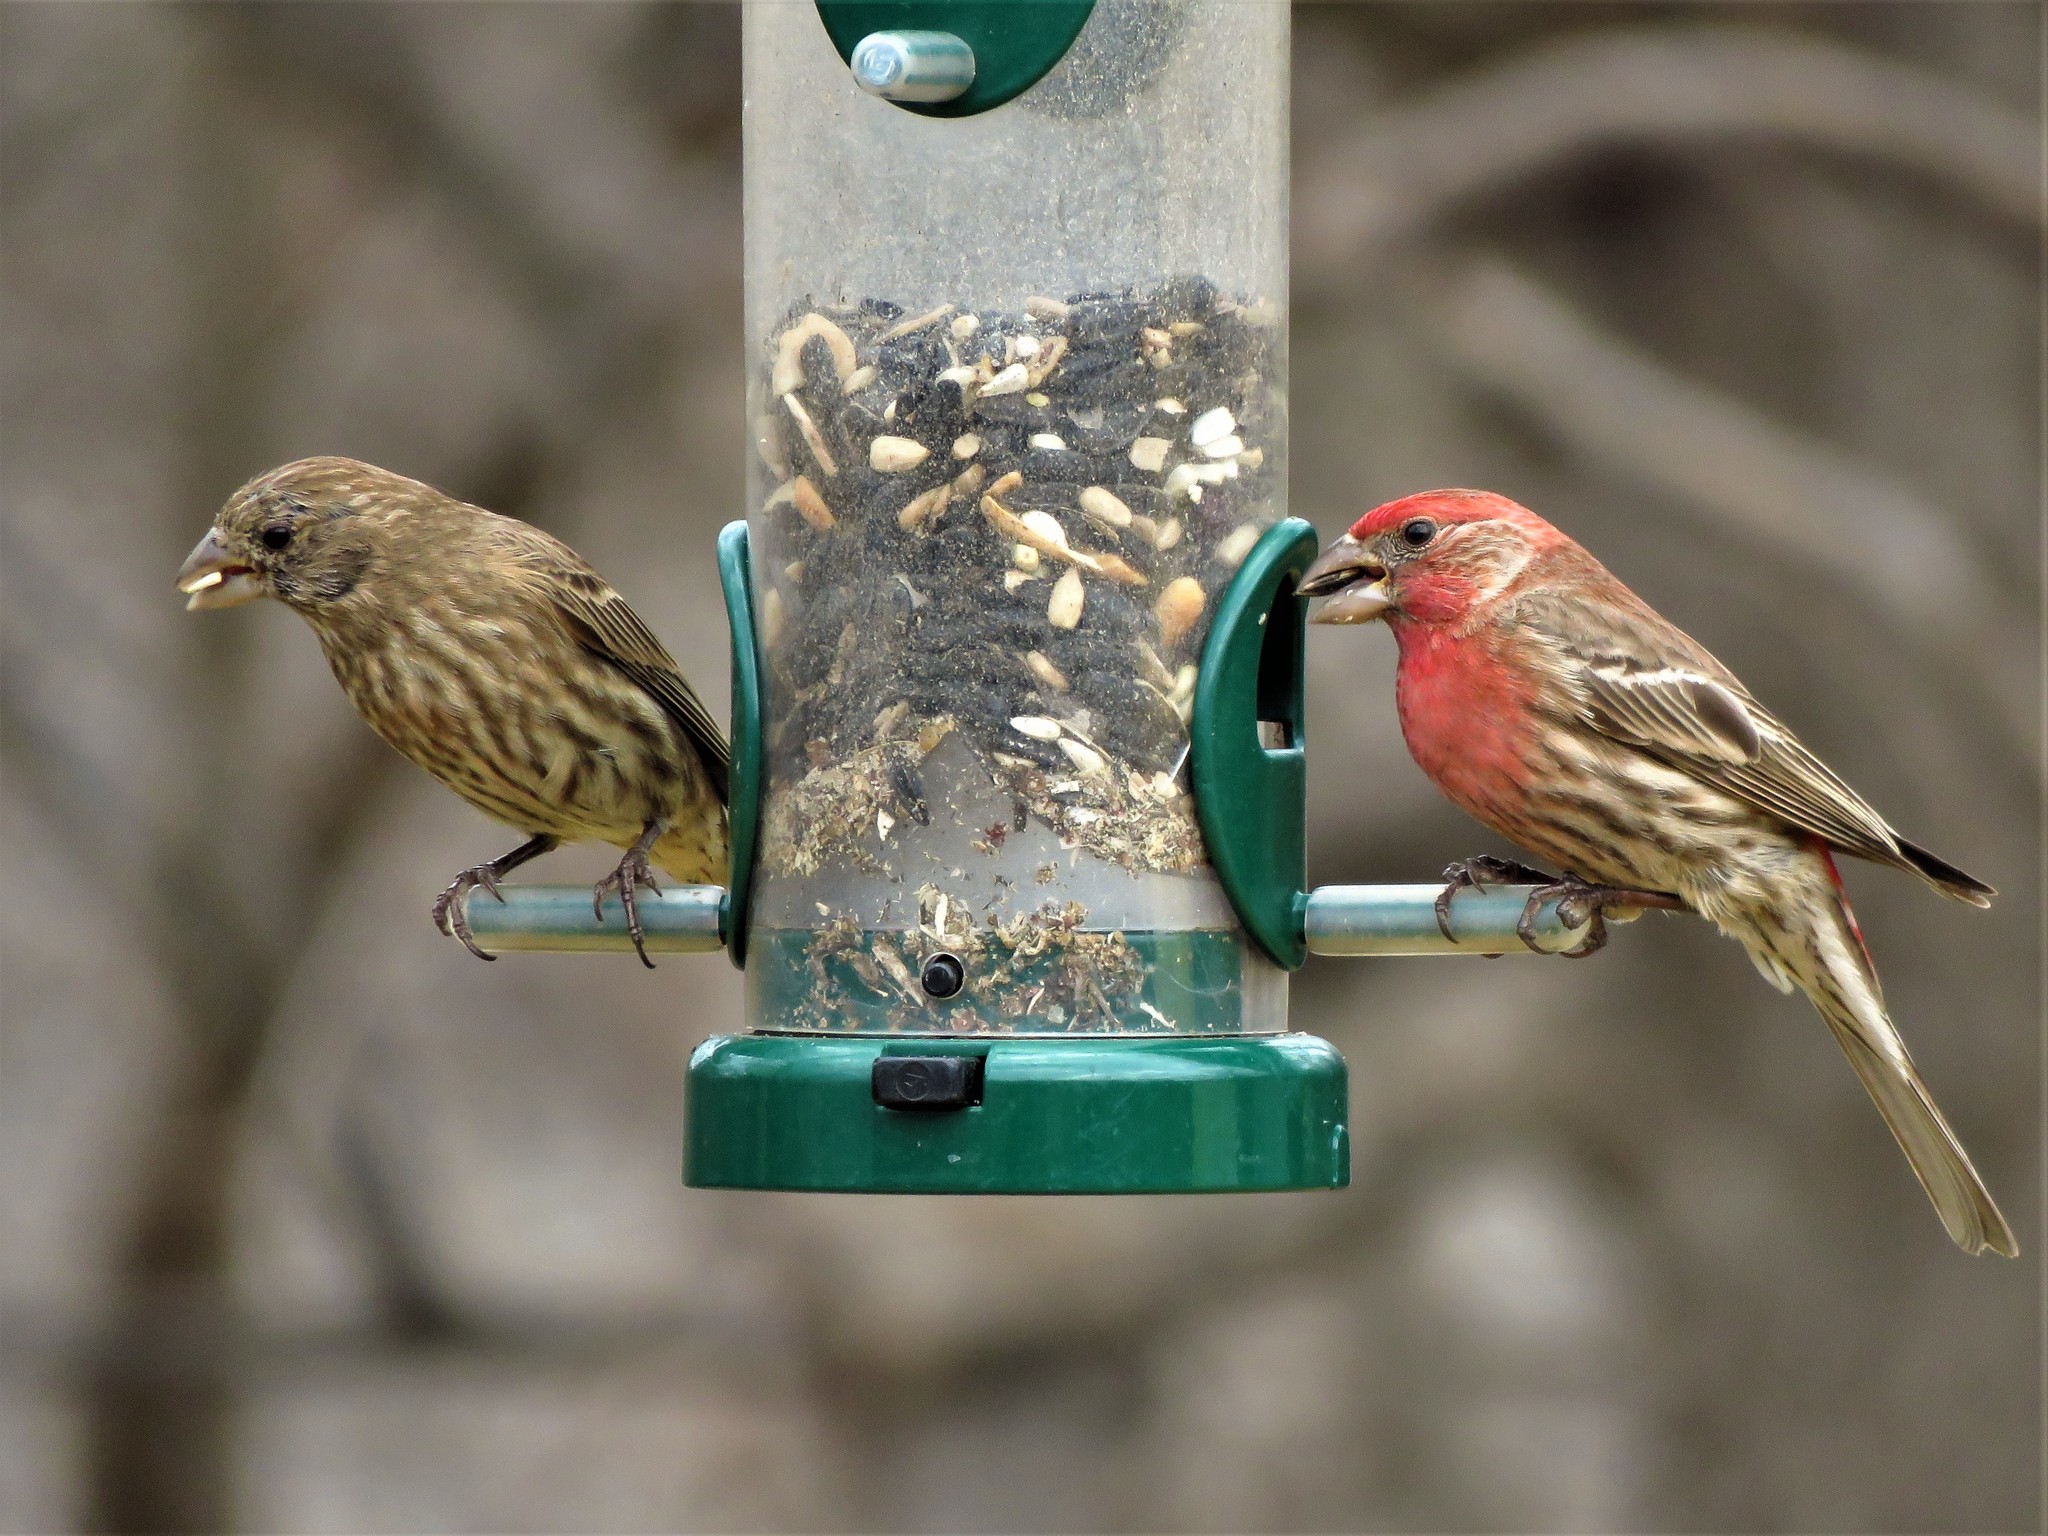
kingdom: Animalia
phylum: Chordata
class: Aves
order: Passeriformes
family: Fringillidae
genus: Haemorhous
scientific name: Haemorhous mexicanus
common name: House finch
